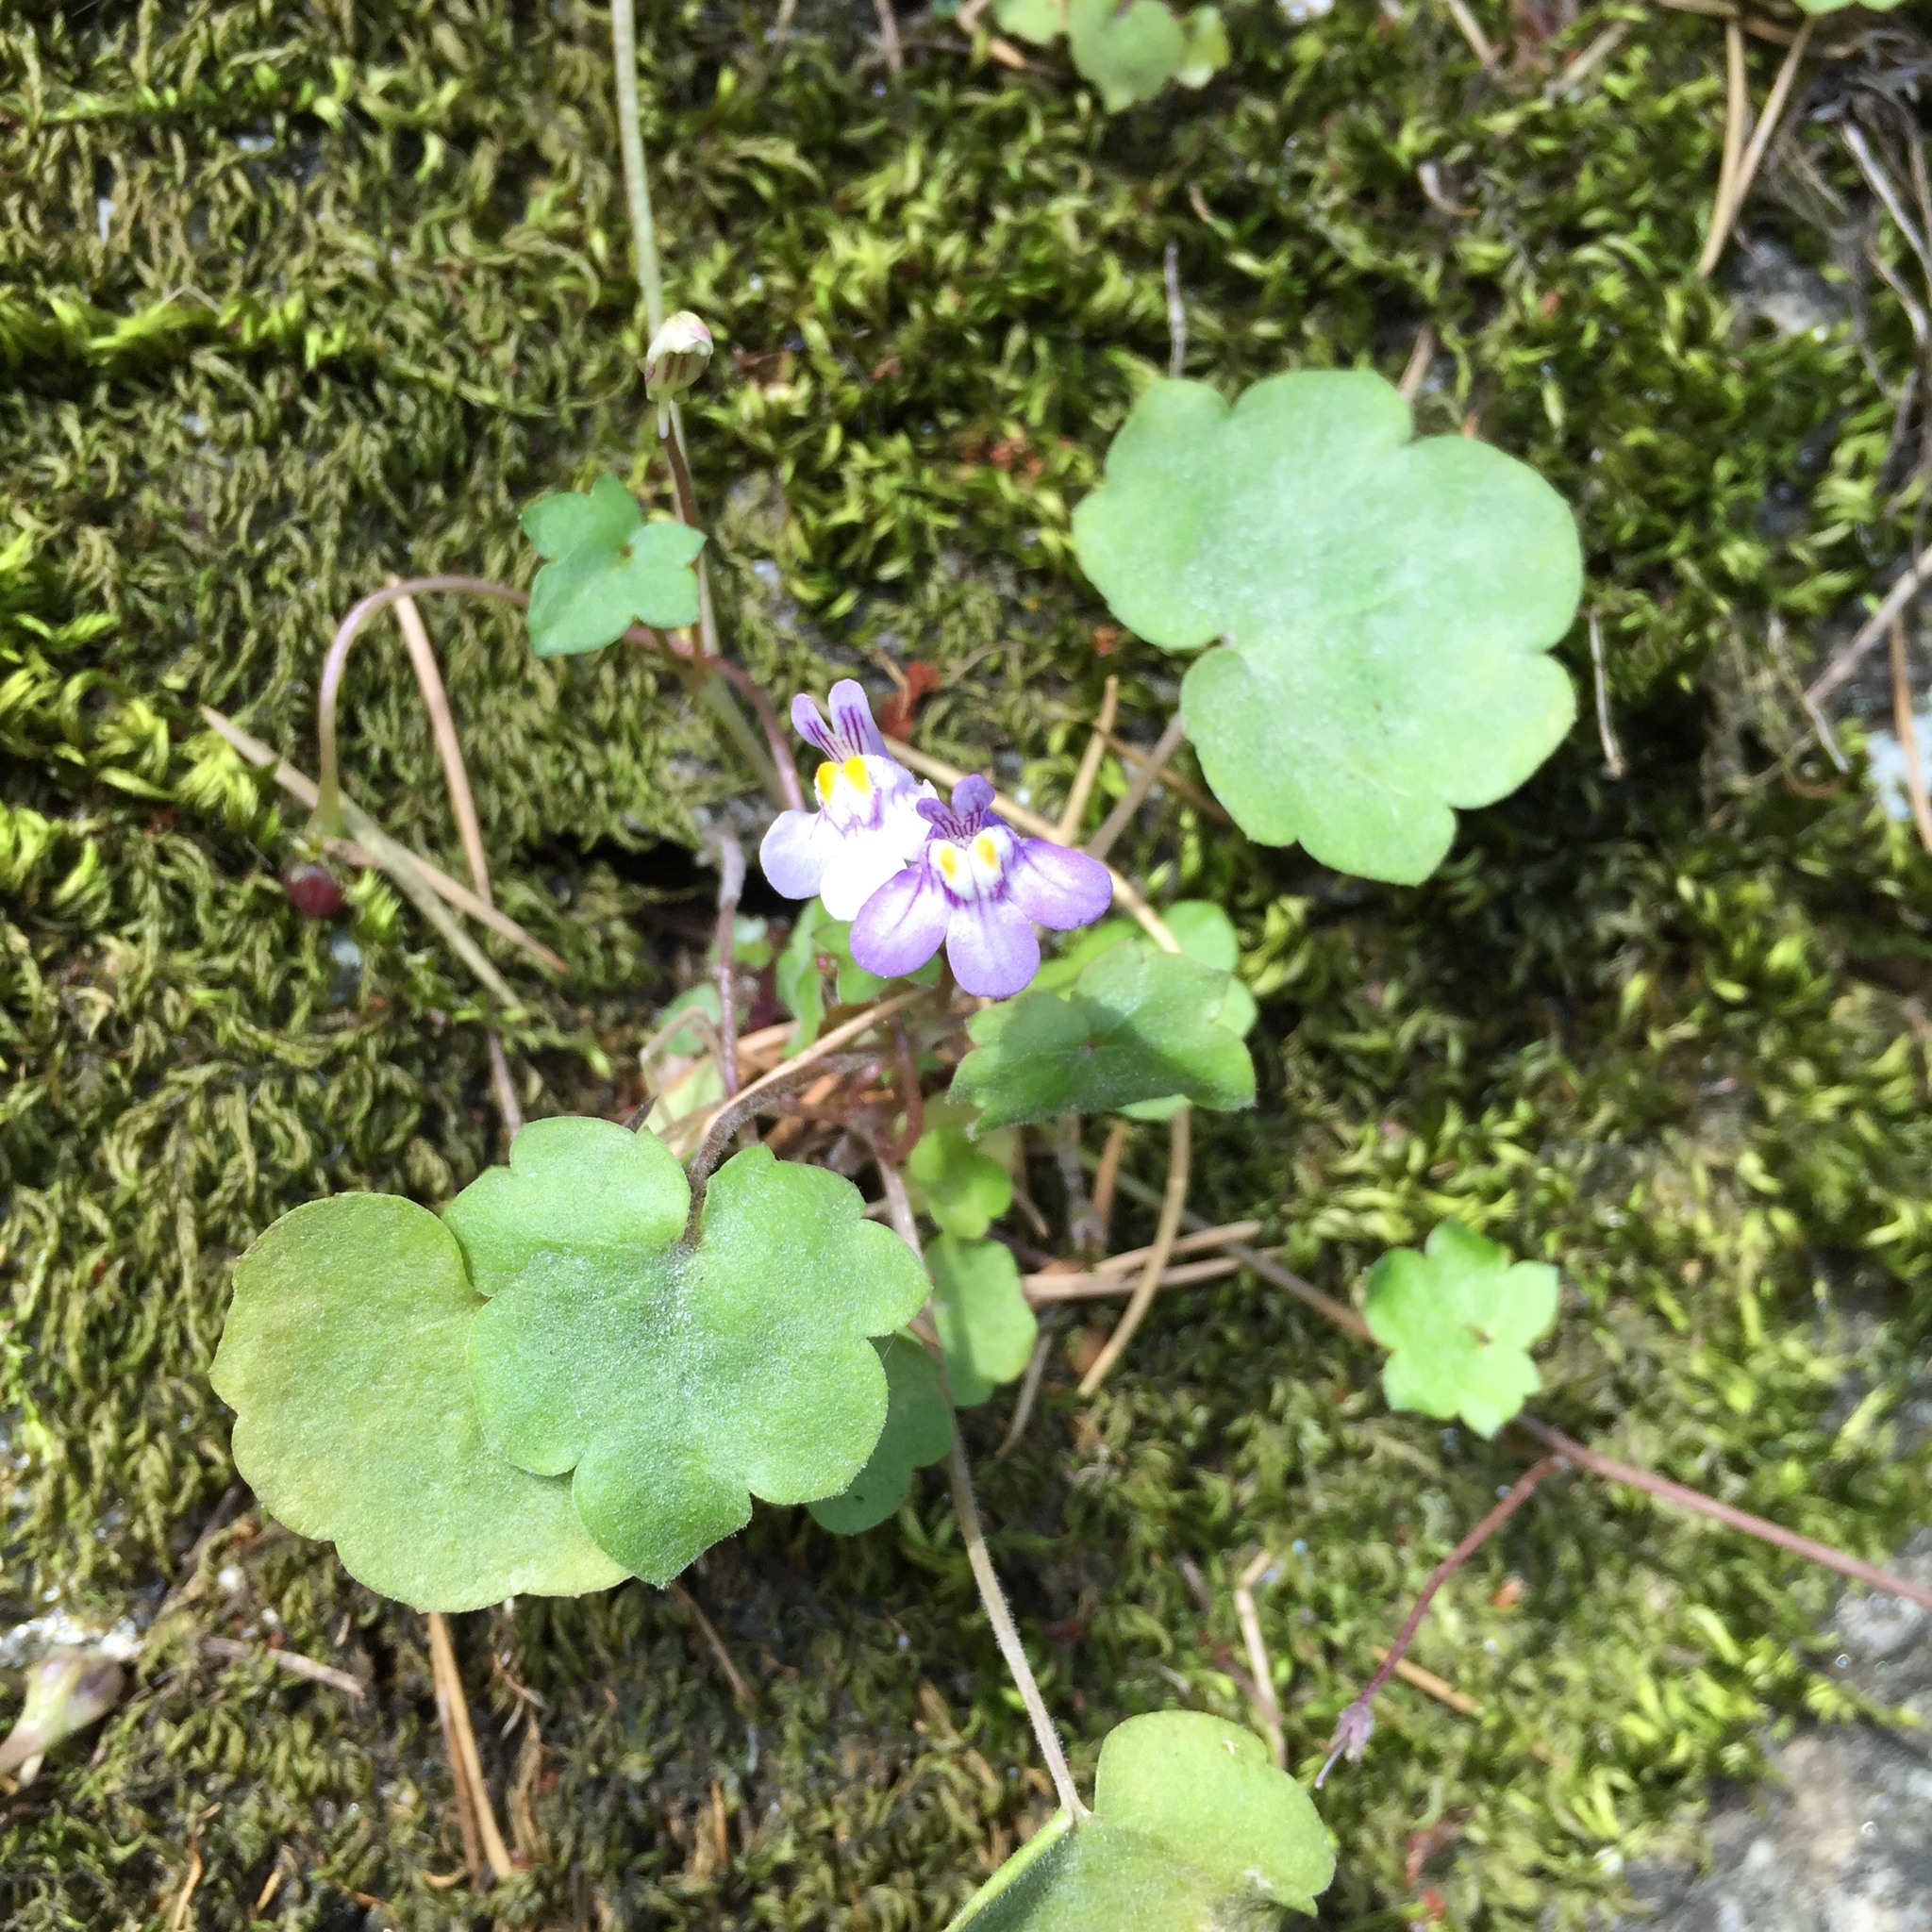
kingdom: Plantae
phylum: Tracheophyta
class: Magnoliopsida
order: Lamiales
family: Plantaginaceae
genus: Cymbalaria
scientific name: Cymbalaria muralis
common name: Ivy-leaved toadflax
